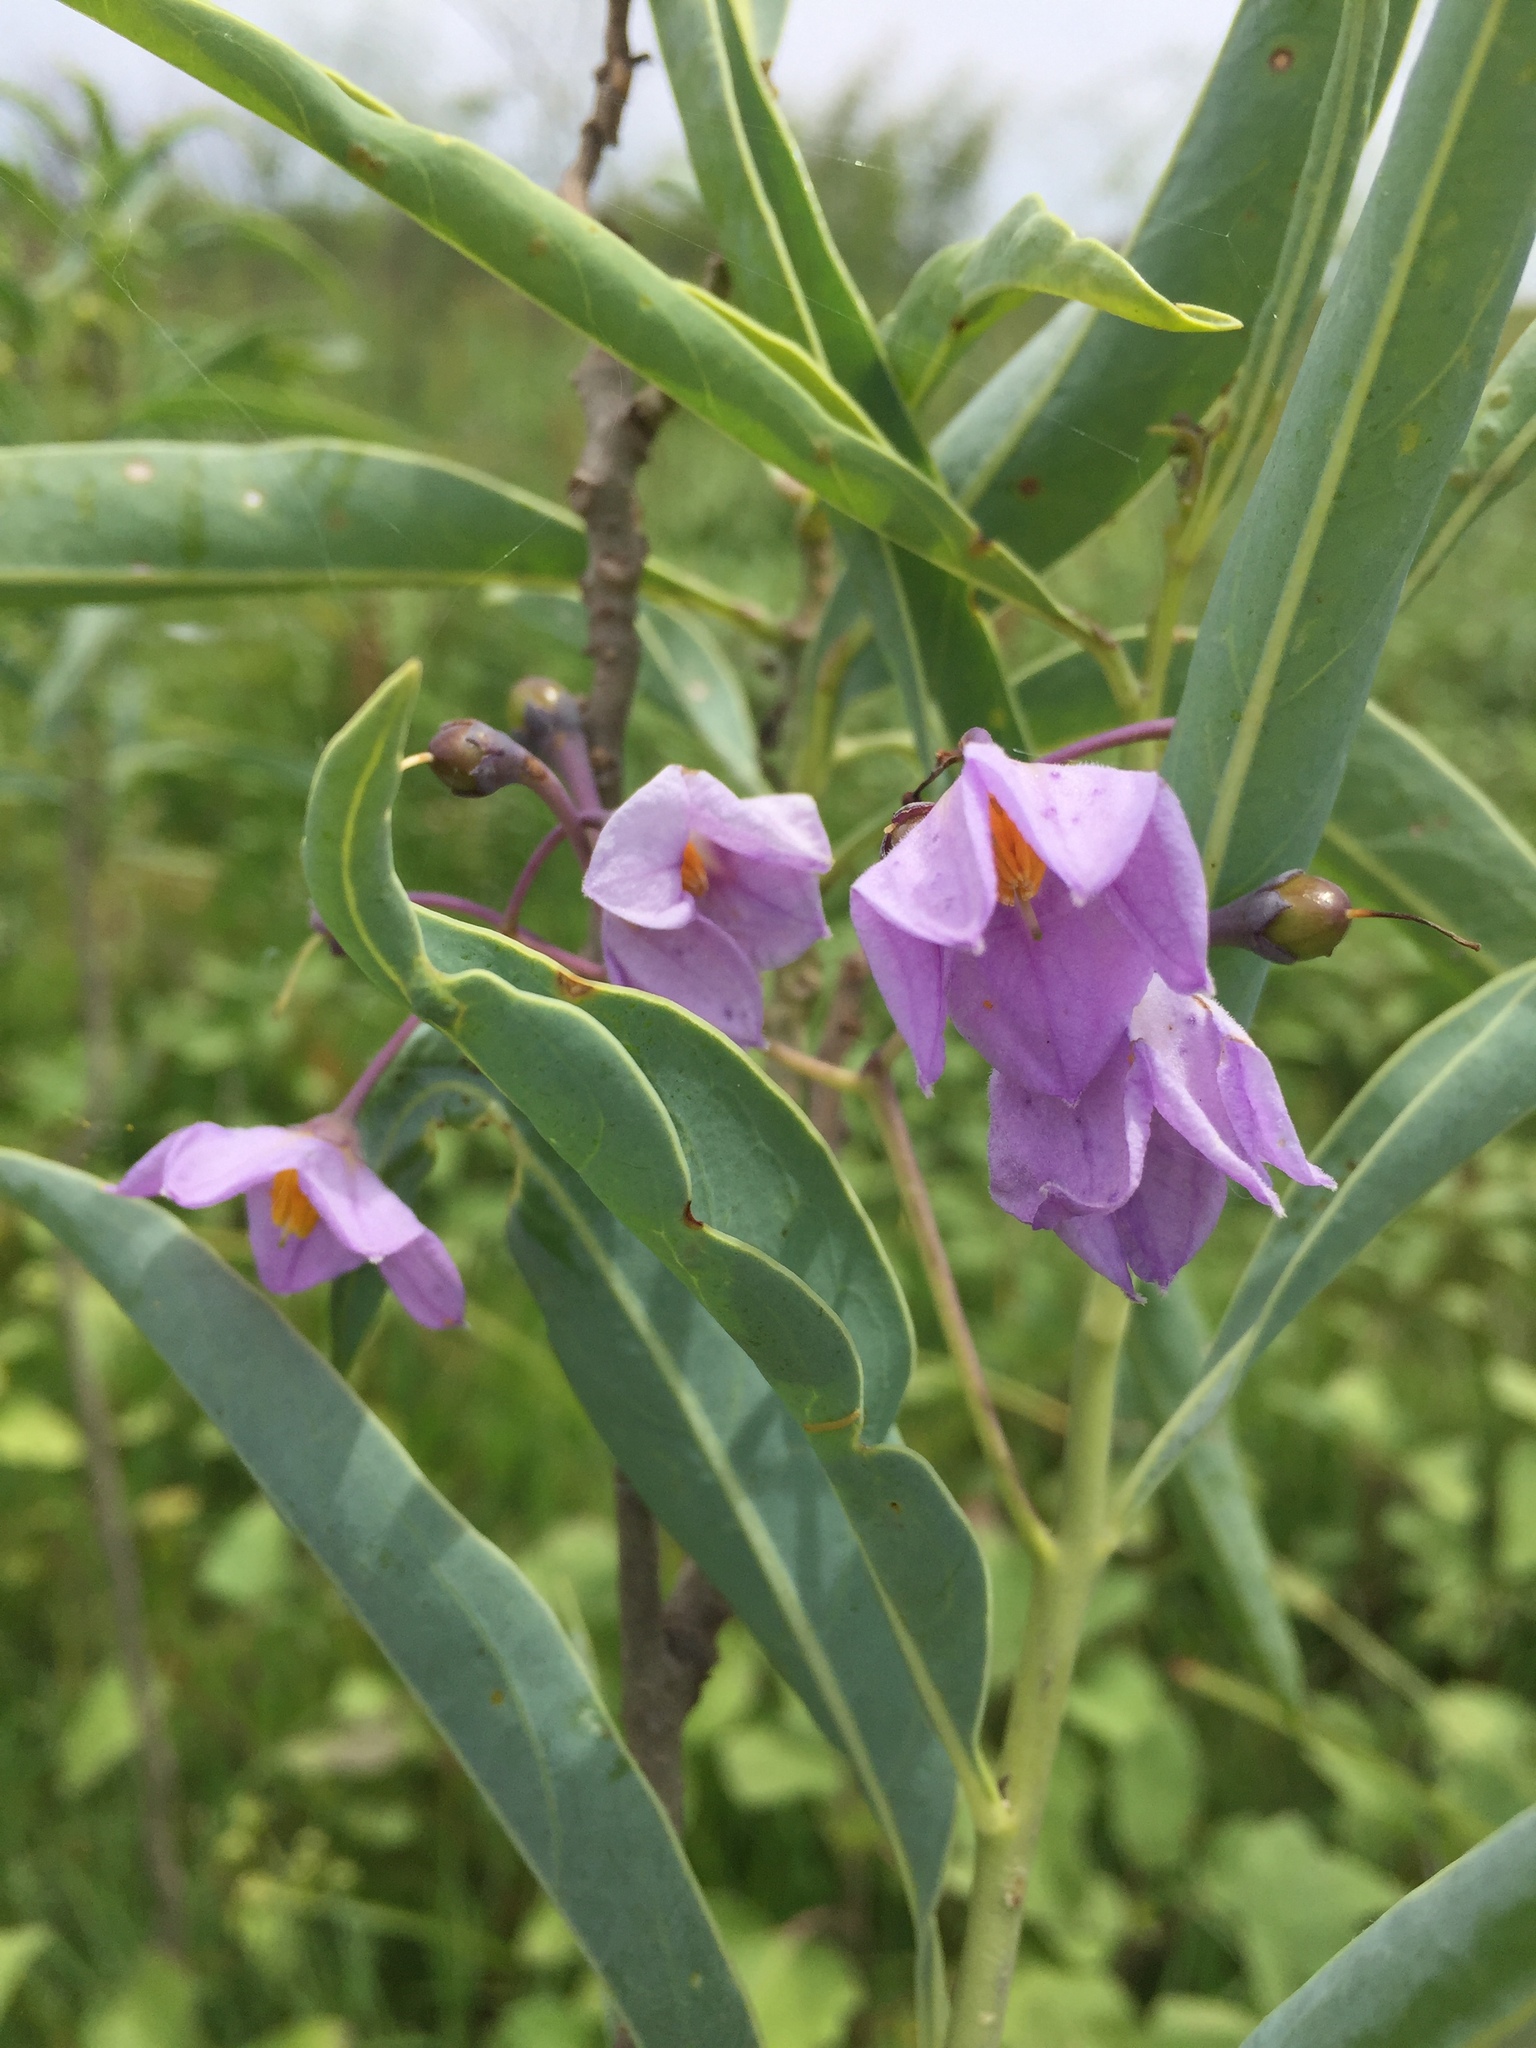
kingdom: Plantae
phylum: Tracheophyta
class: Magnoliopsida
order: Solanales
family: Solanaceae
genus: Solanum
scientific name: Solanum glaucophyllum
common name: Waxyleaf nightshade
